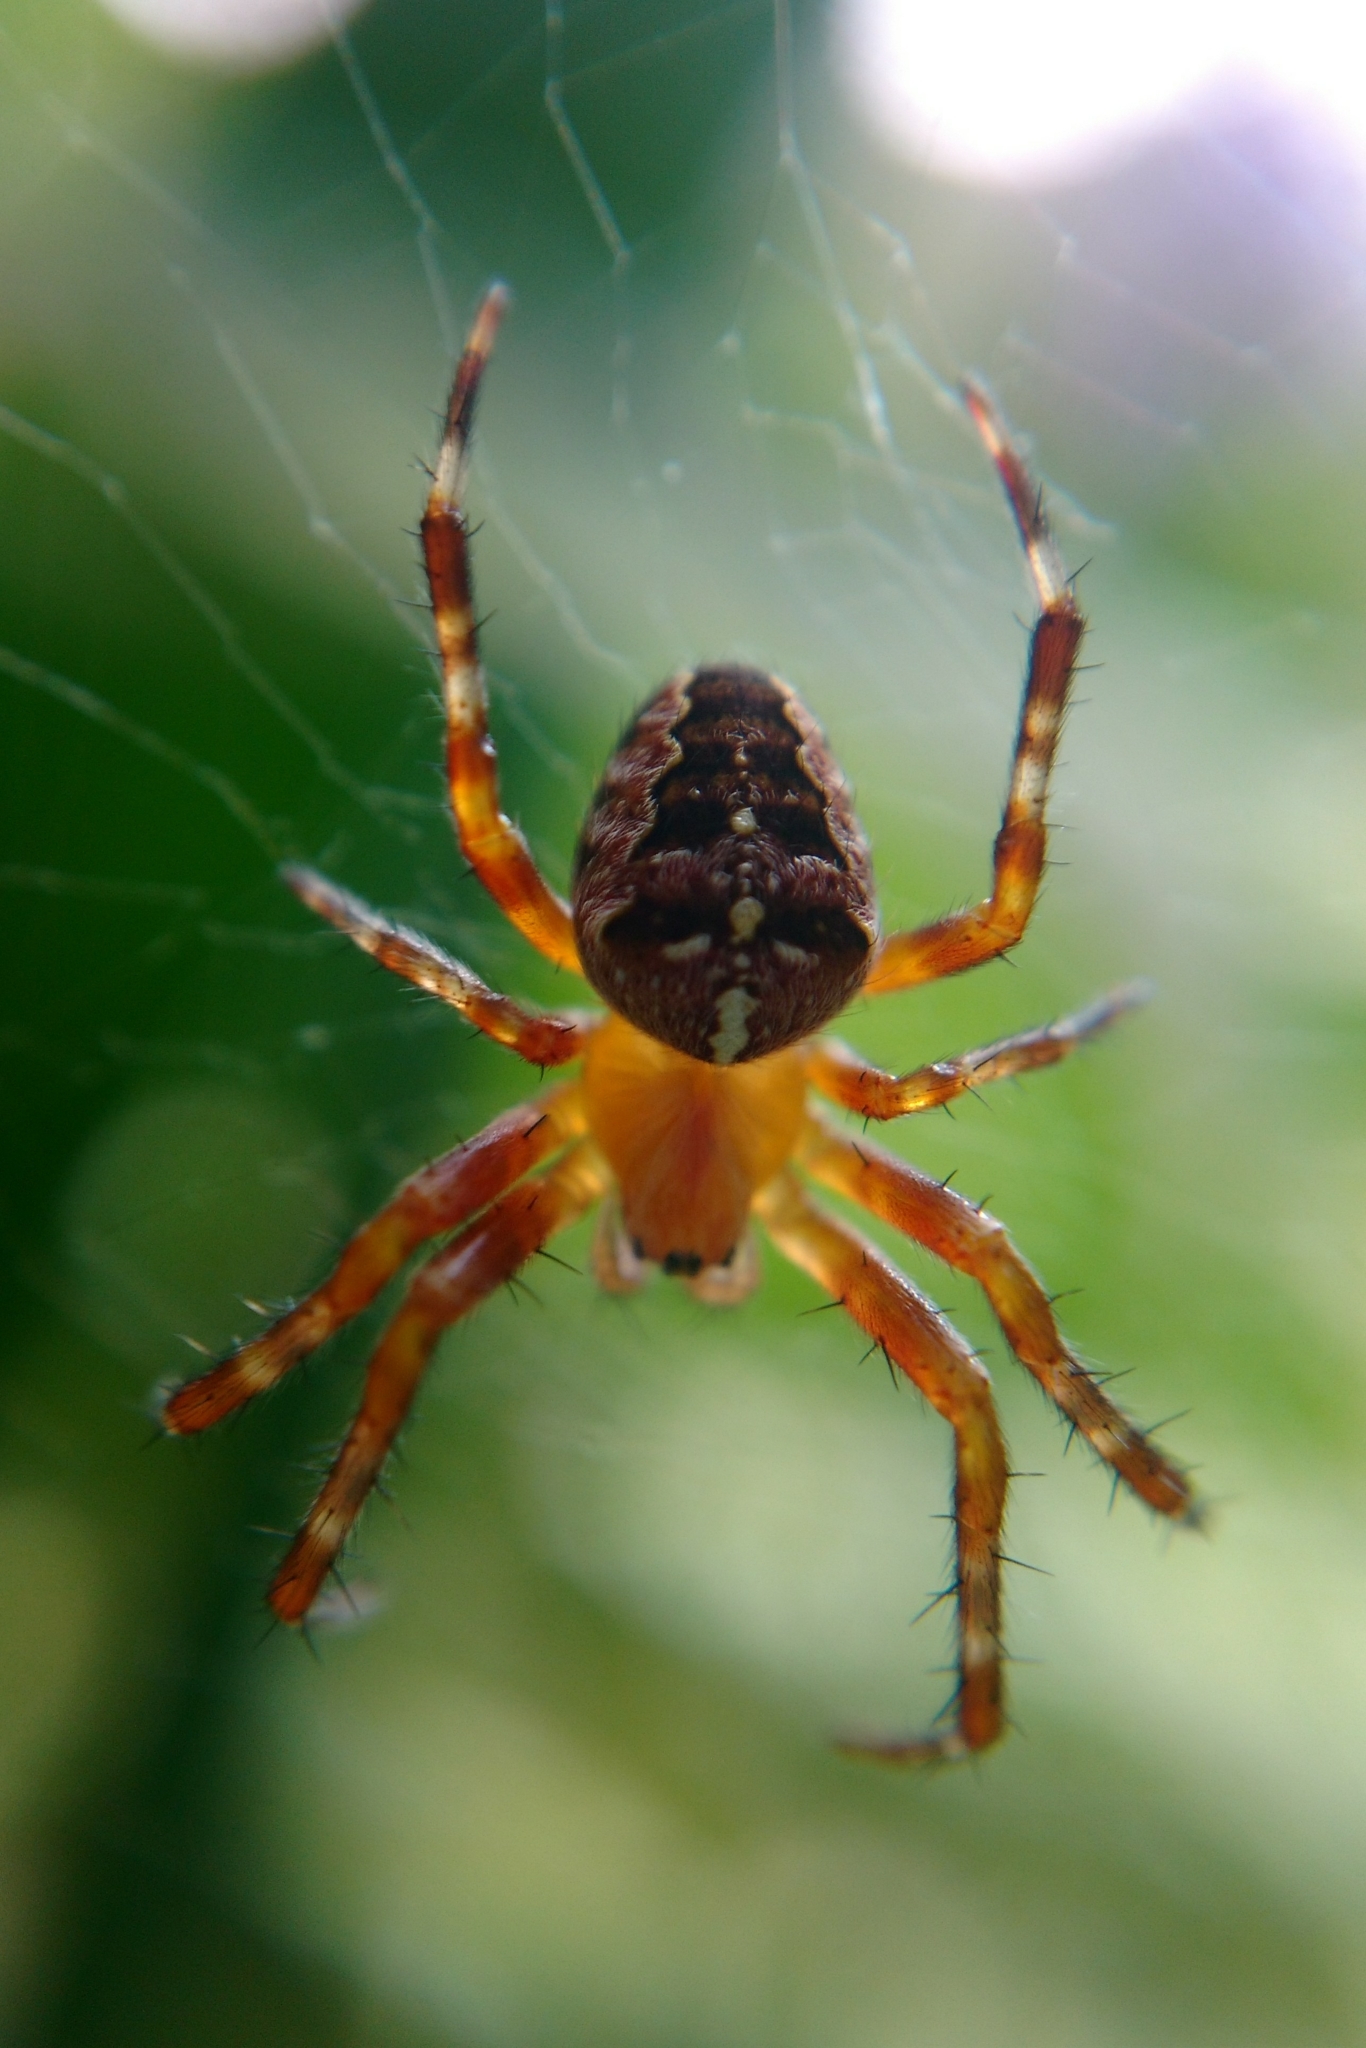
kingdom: Animalia
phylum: Arthropoda
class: Arachnida
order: Araneae
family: Araneidae
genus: Araneus
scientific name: Araneus diadematus
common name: Cross orbweaver
